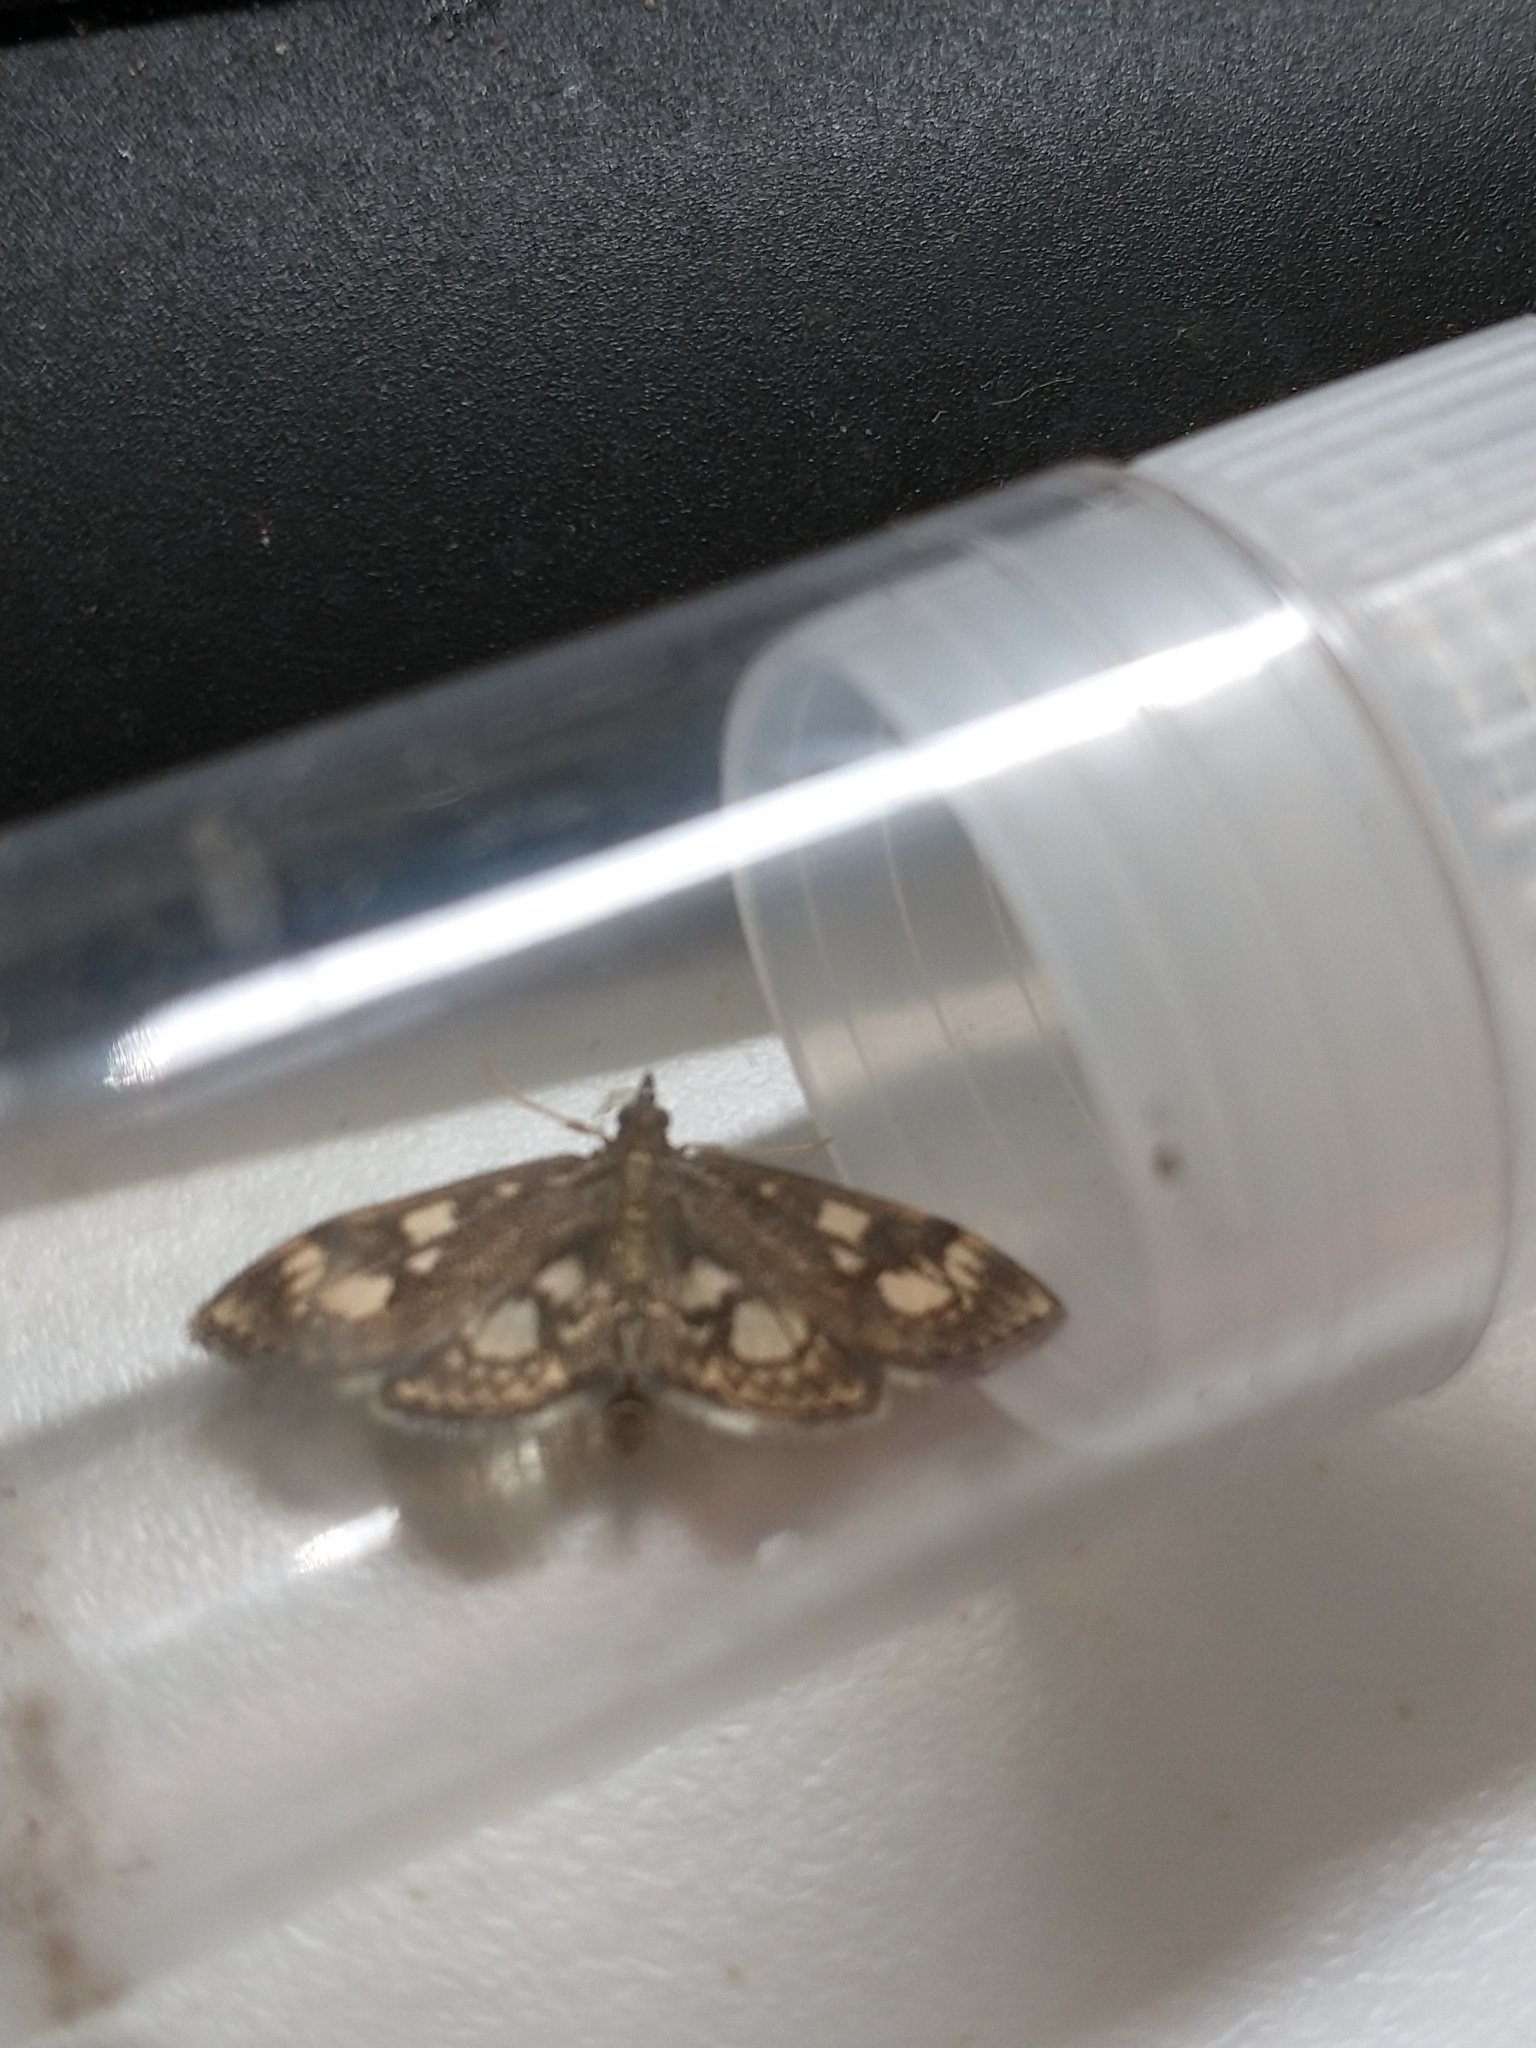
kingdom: Animalia
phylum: Arthropoda
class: Insecta
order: Lepidoptera
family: Crambidae
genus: Anania
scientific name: Anania coronata
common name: Elder pearl
